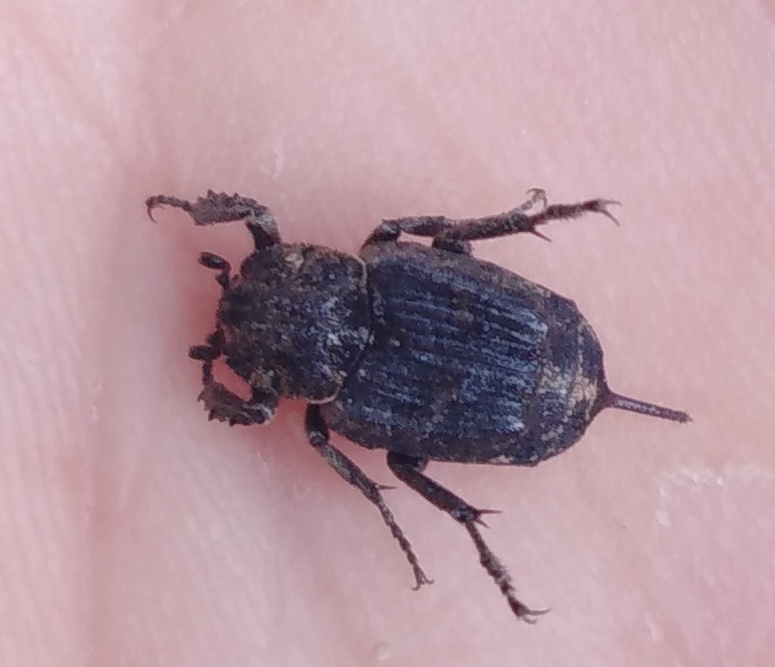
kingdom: Animalia
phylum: Arthropoda
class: Insecta
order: Coleoptera
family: Scarabaeidae
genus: Valgus
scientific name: Valgus hemipterus
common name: Bug flower chafer
